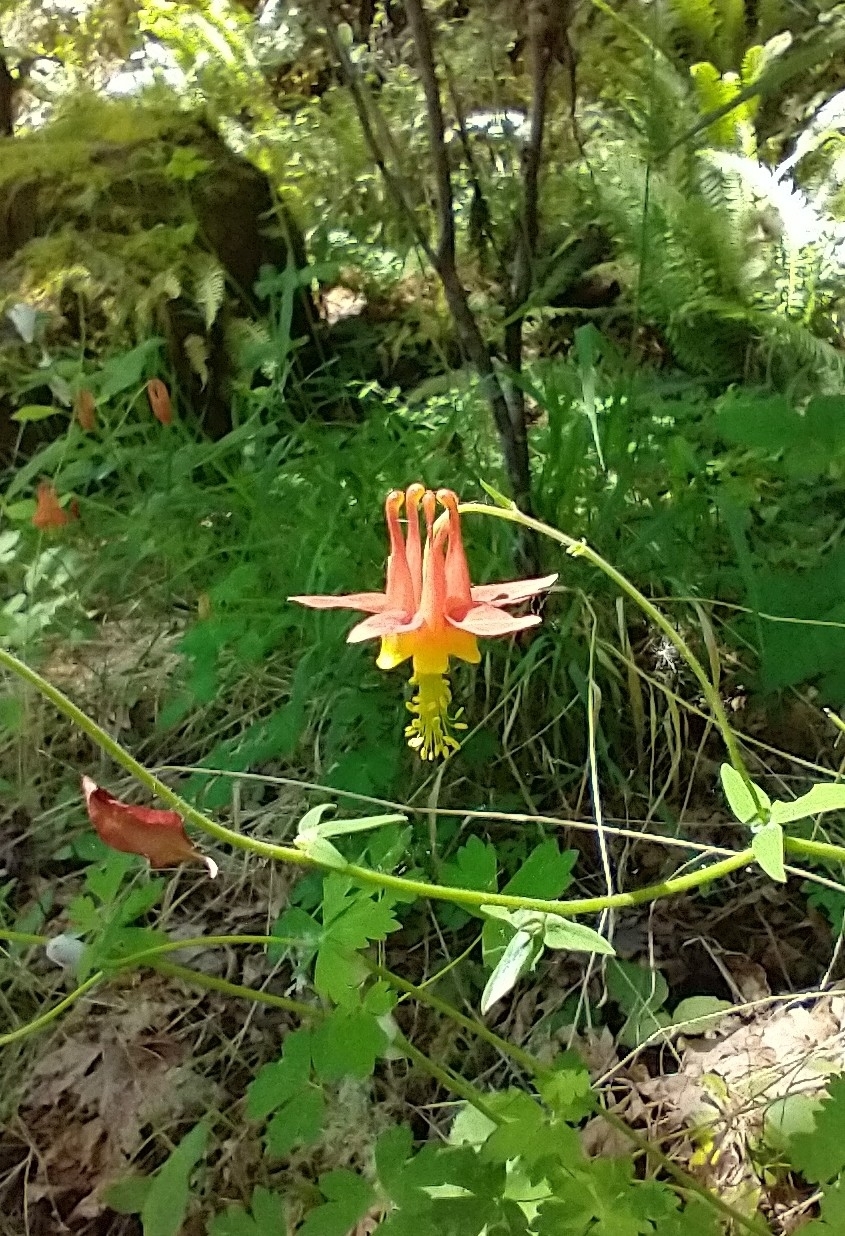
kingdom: Plantae
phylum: Tracheophyta
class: Magnoliopsida
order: Ranunculales
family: Ranunculaceae
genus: Aquilegia
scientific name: Aquilegia formosa
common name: Sitka columbine
